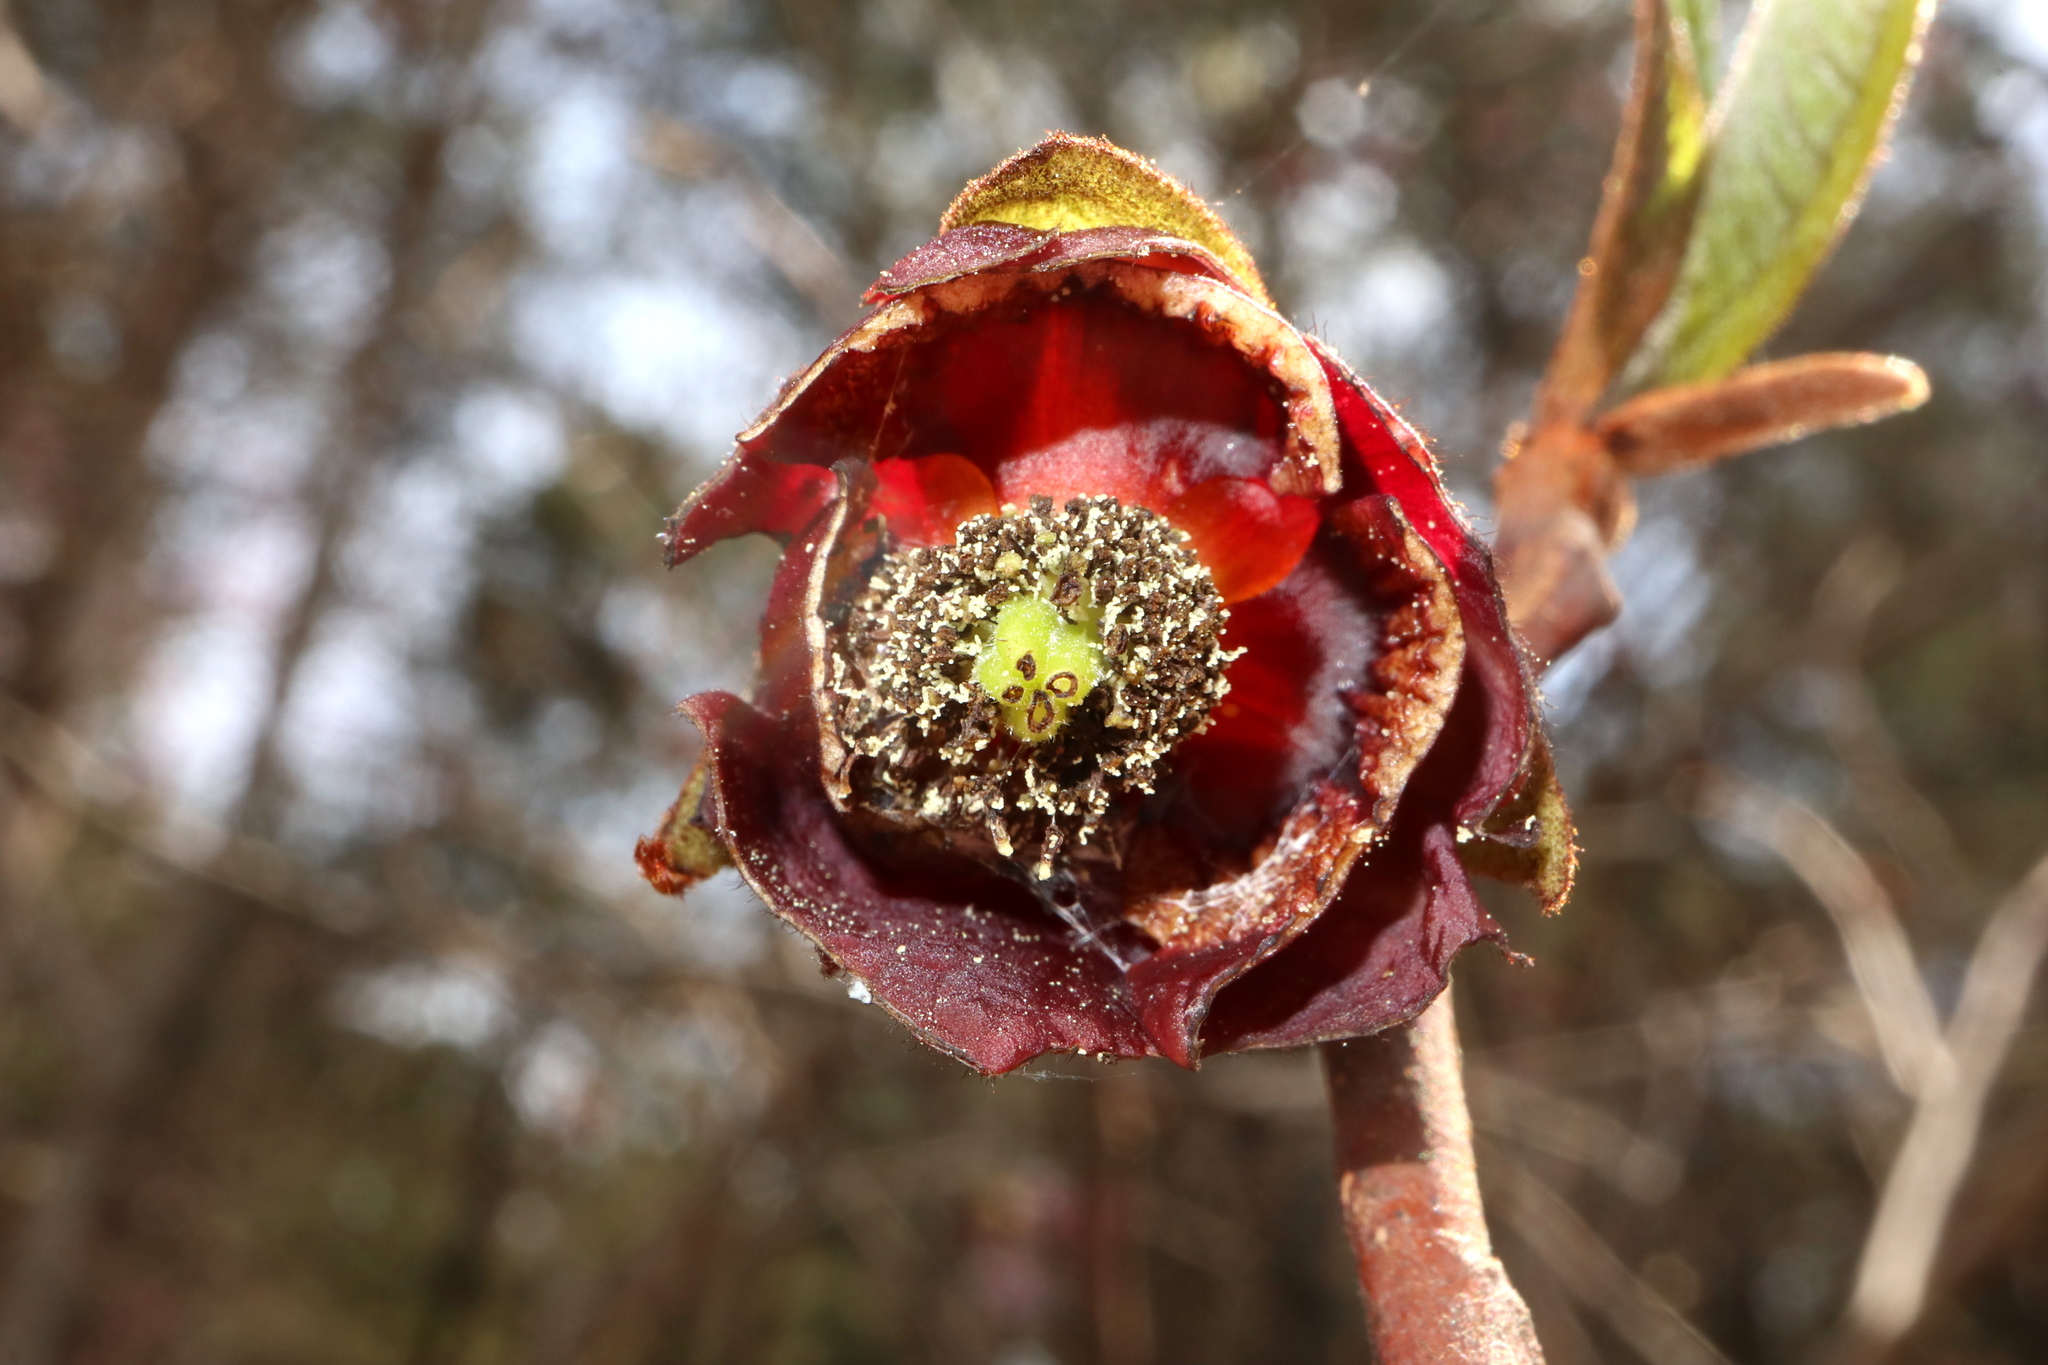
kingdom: Plantae
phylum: Tracheophyta
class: Magnoliopsida
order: Magnoliales
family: Annonaceae
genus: Asimina
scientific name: Asimina triloba
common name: Dog-banana
